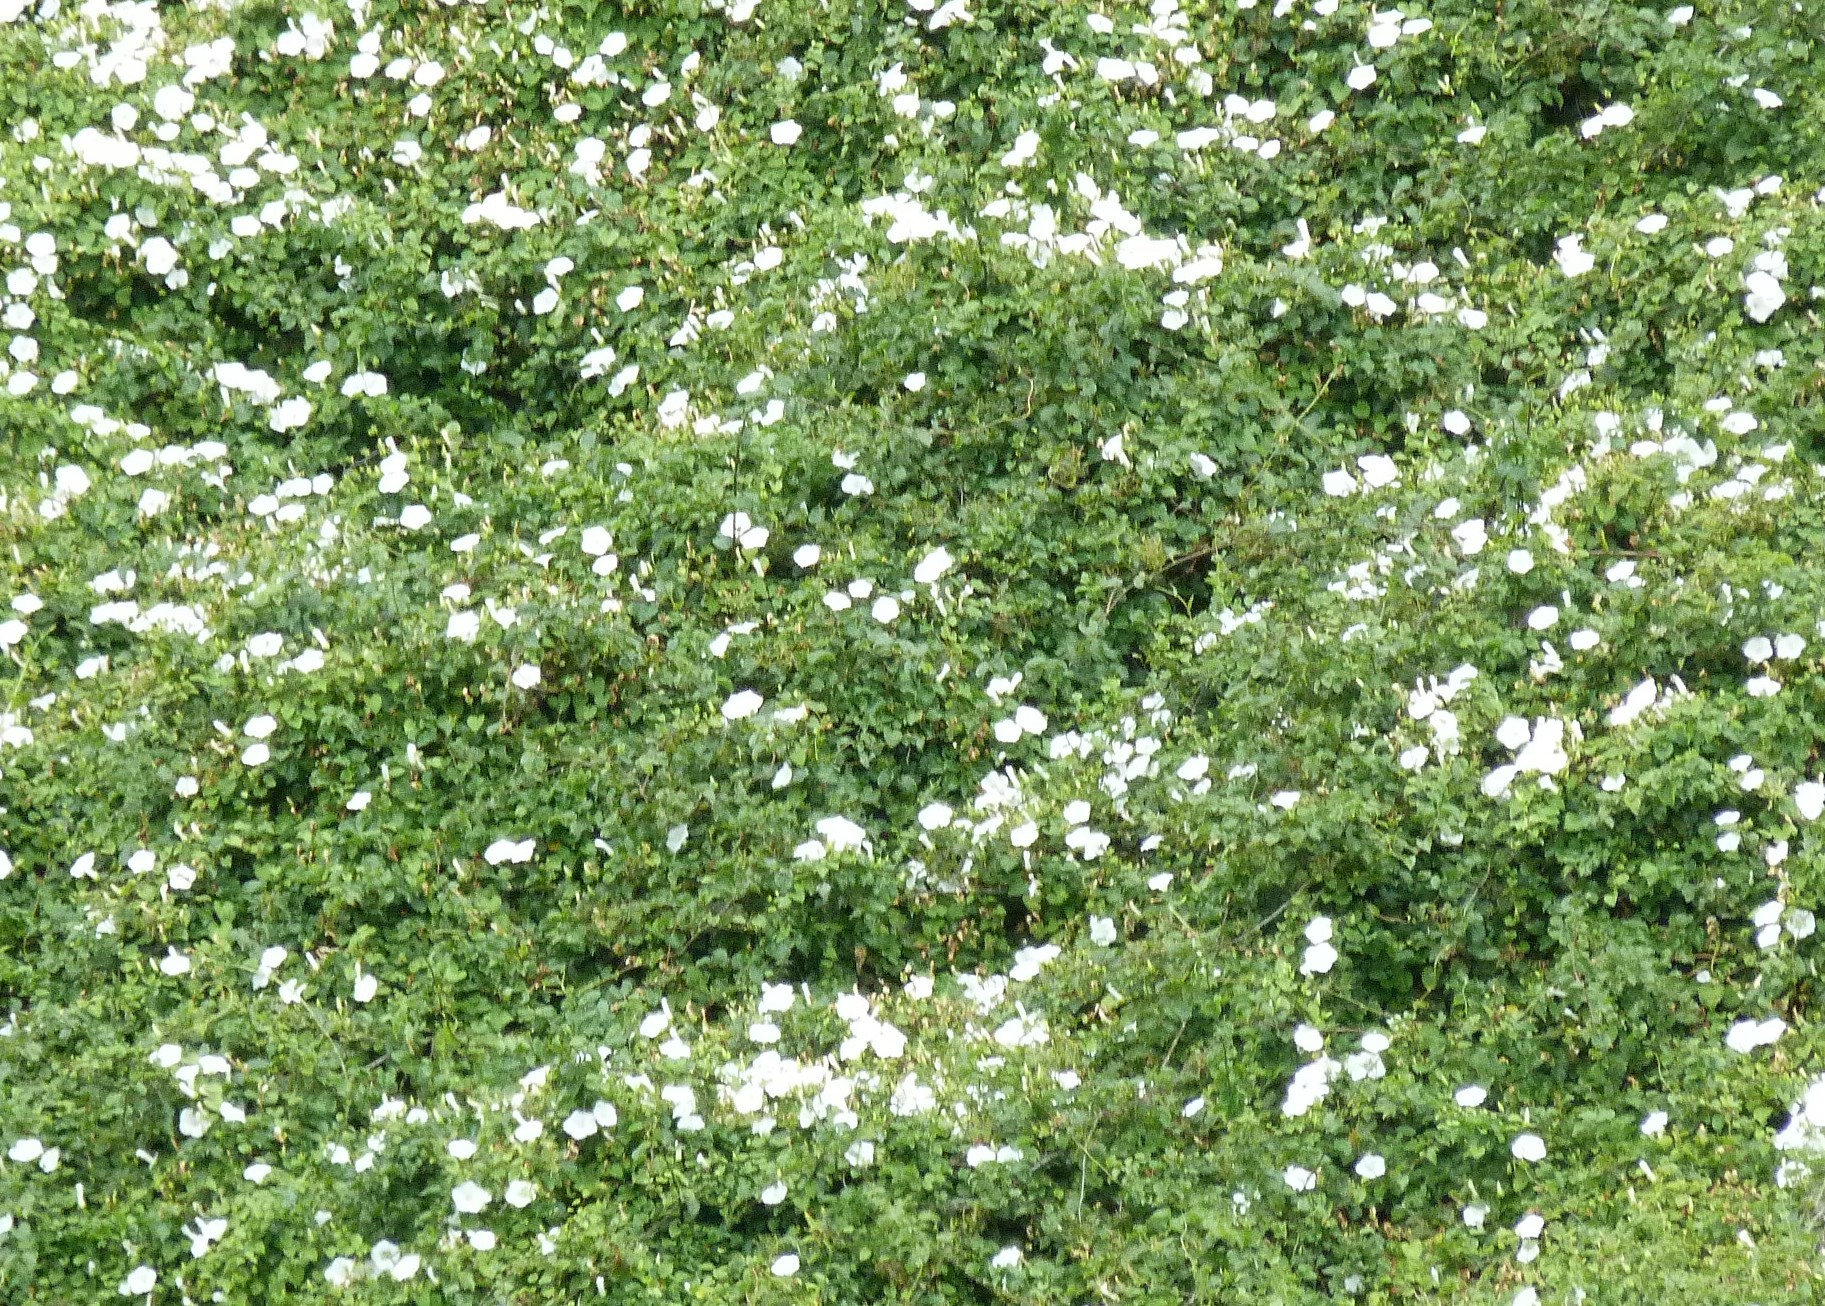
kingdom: Plantae
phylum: Tracheophyta
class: Magnoliopsida
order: Solanales
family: Convolvulaceae
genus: Calystegia
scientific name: Calystegia tuguriorum
